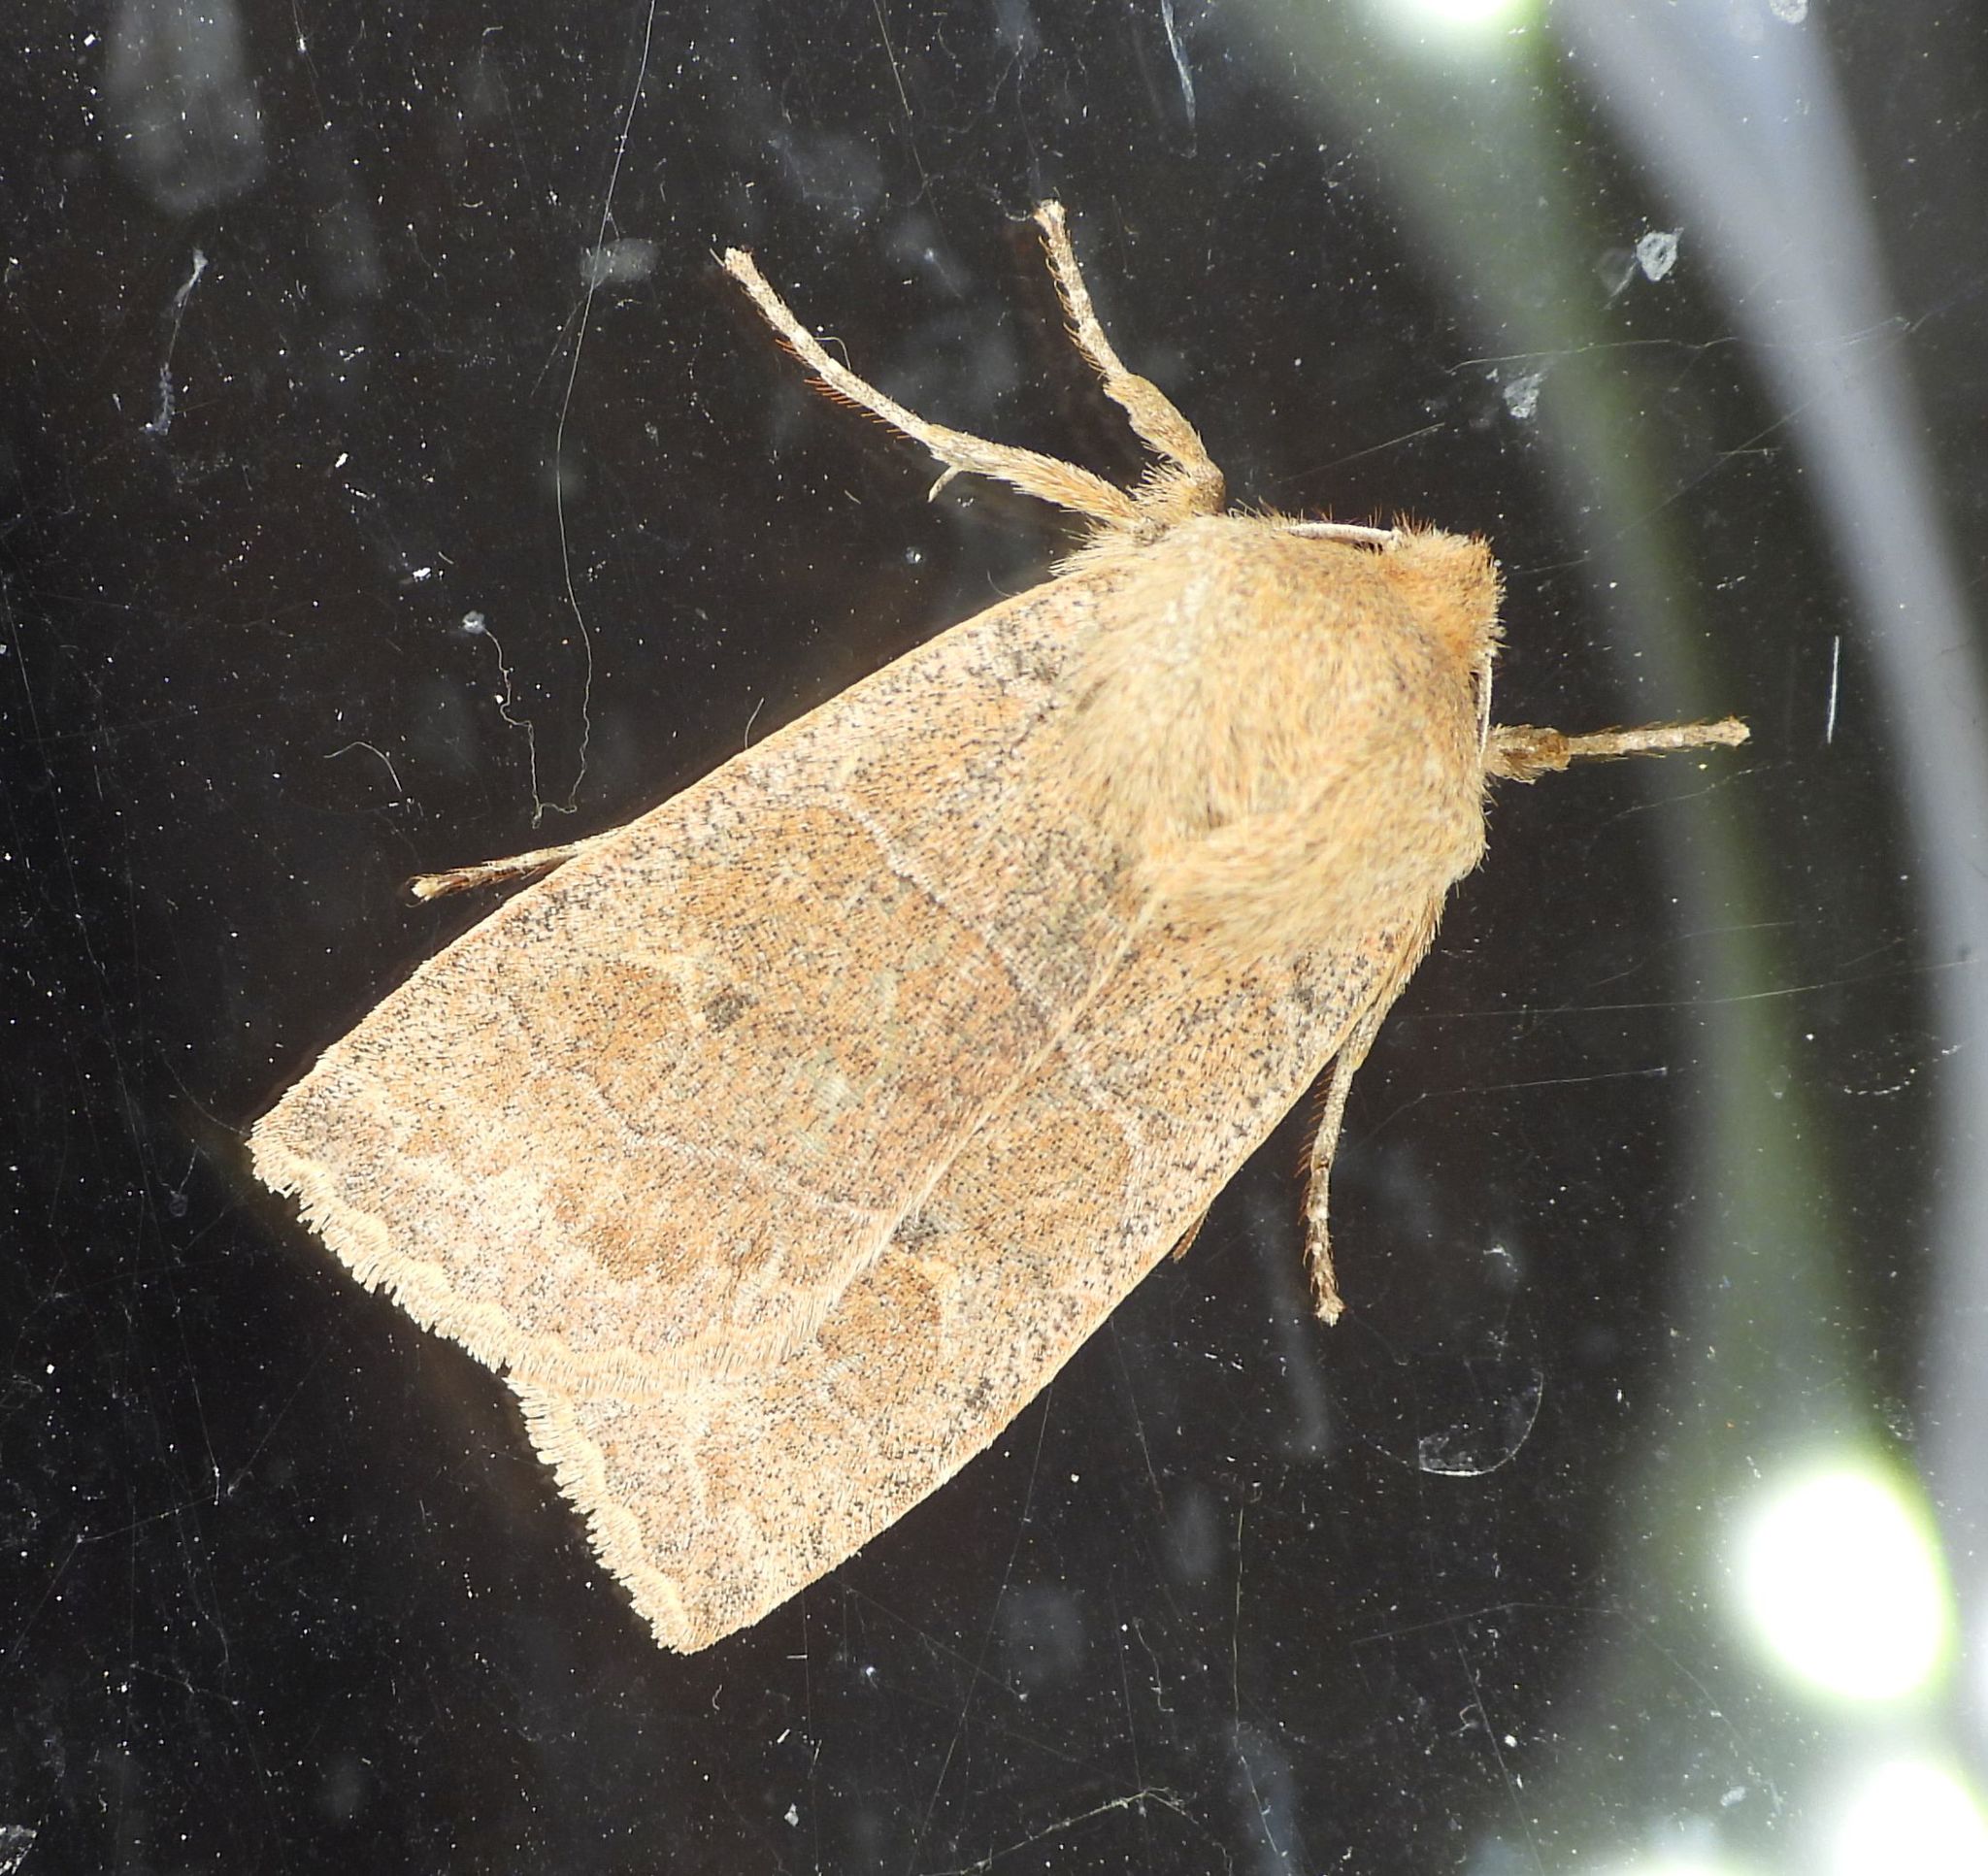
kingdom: Animalia
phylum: Arthropoda
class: Insecta
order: Lepidoptera
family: Noctuidae
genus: Eupsilia
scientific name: Eupsilia morrisoni
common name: Morrison's sallow
